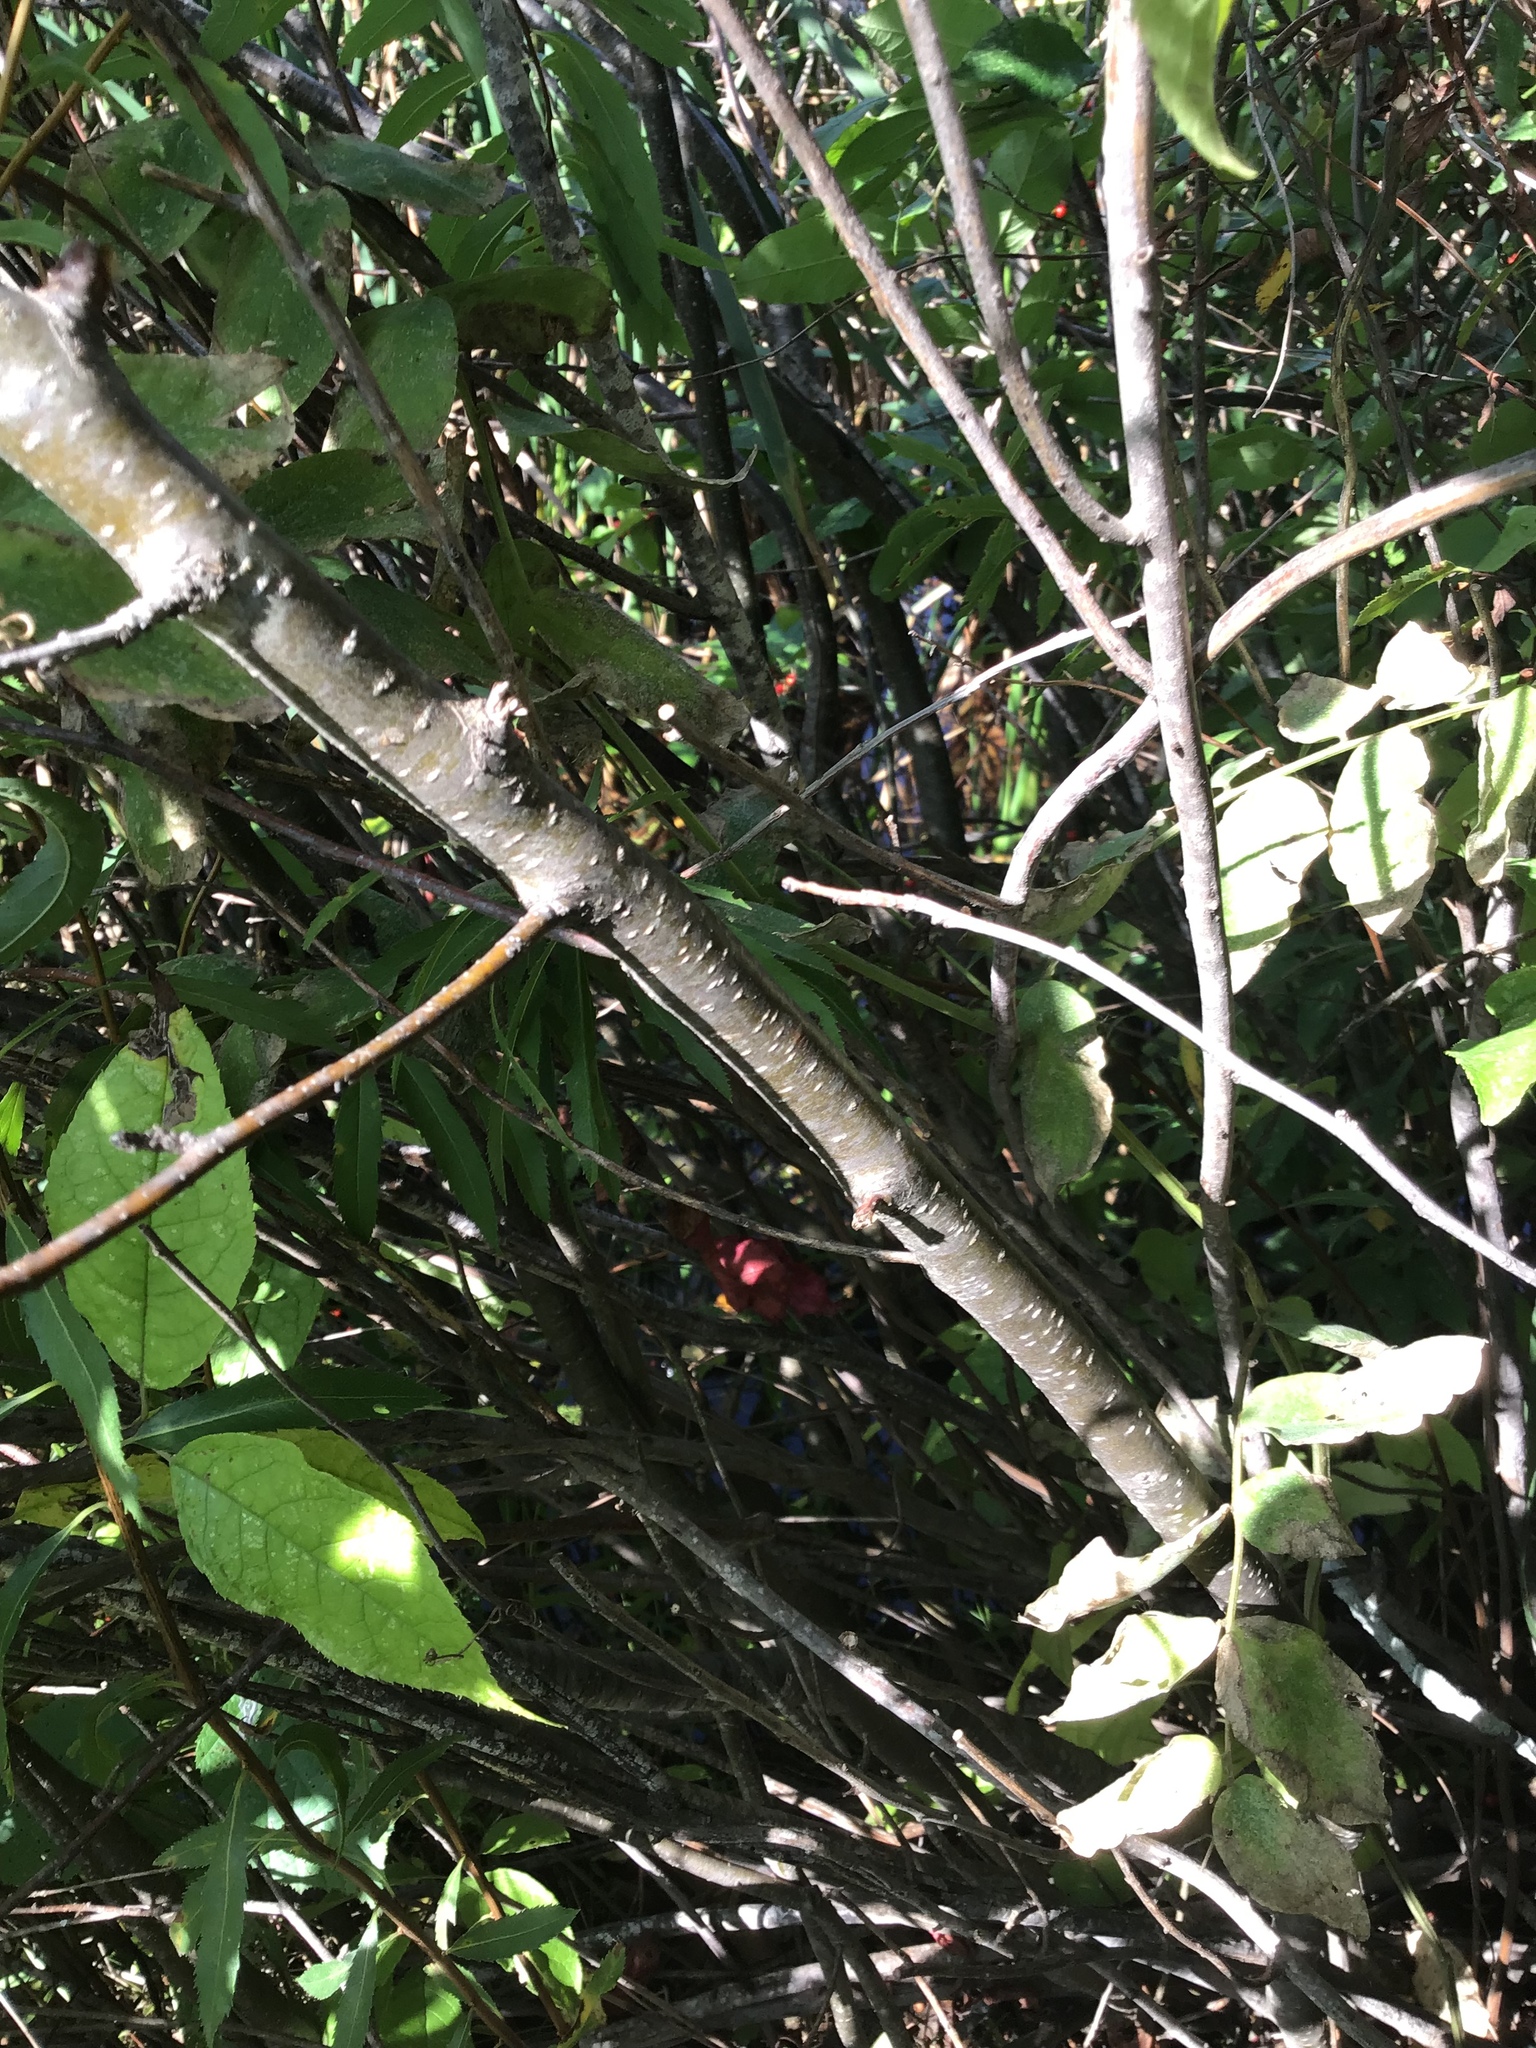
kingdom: Plantae
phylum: Tracheophyta
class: Magnoliopsida
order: Aquifoliales
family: Aquifoliaceae
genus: Ilex
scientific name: Ilex verticillata
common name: Virginia winterberry
